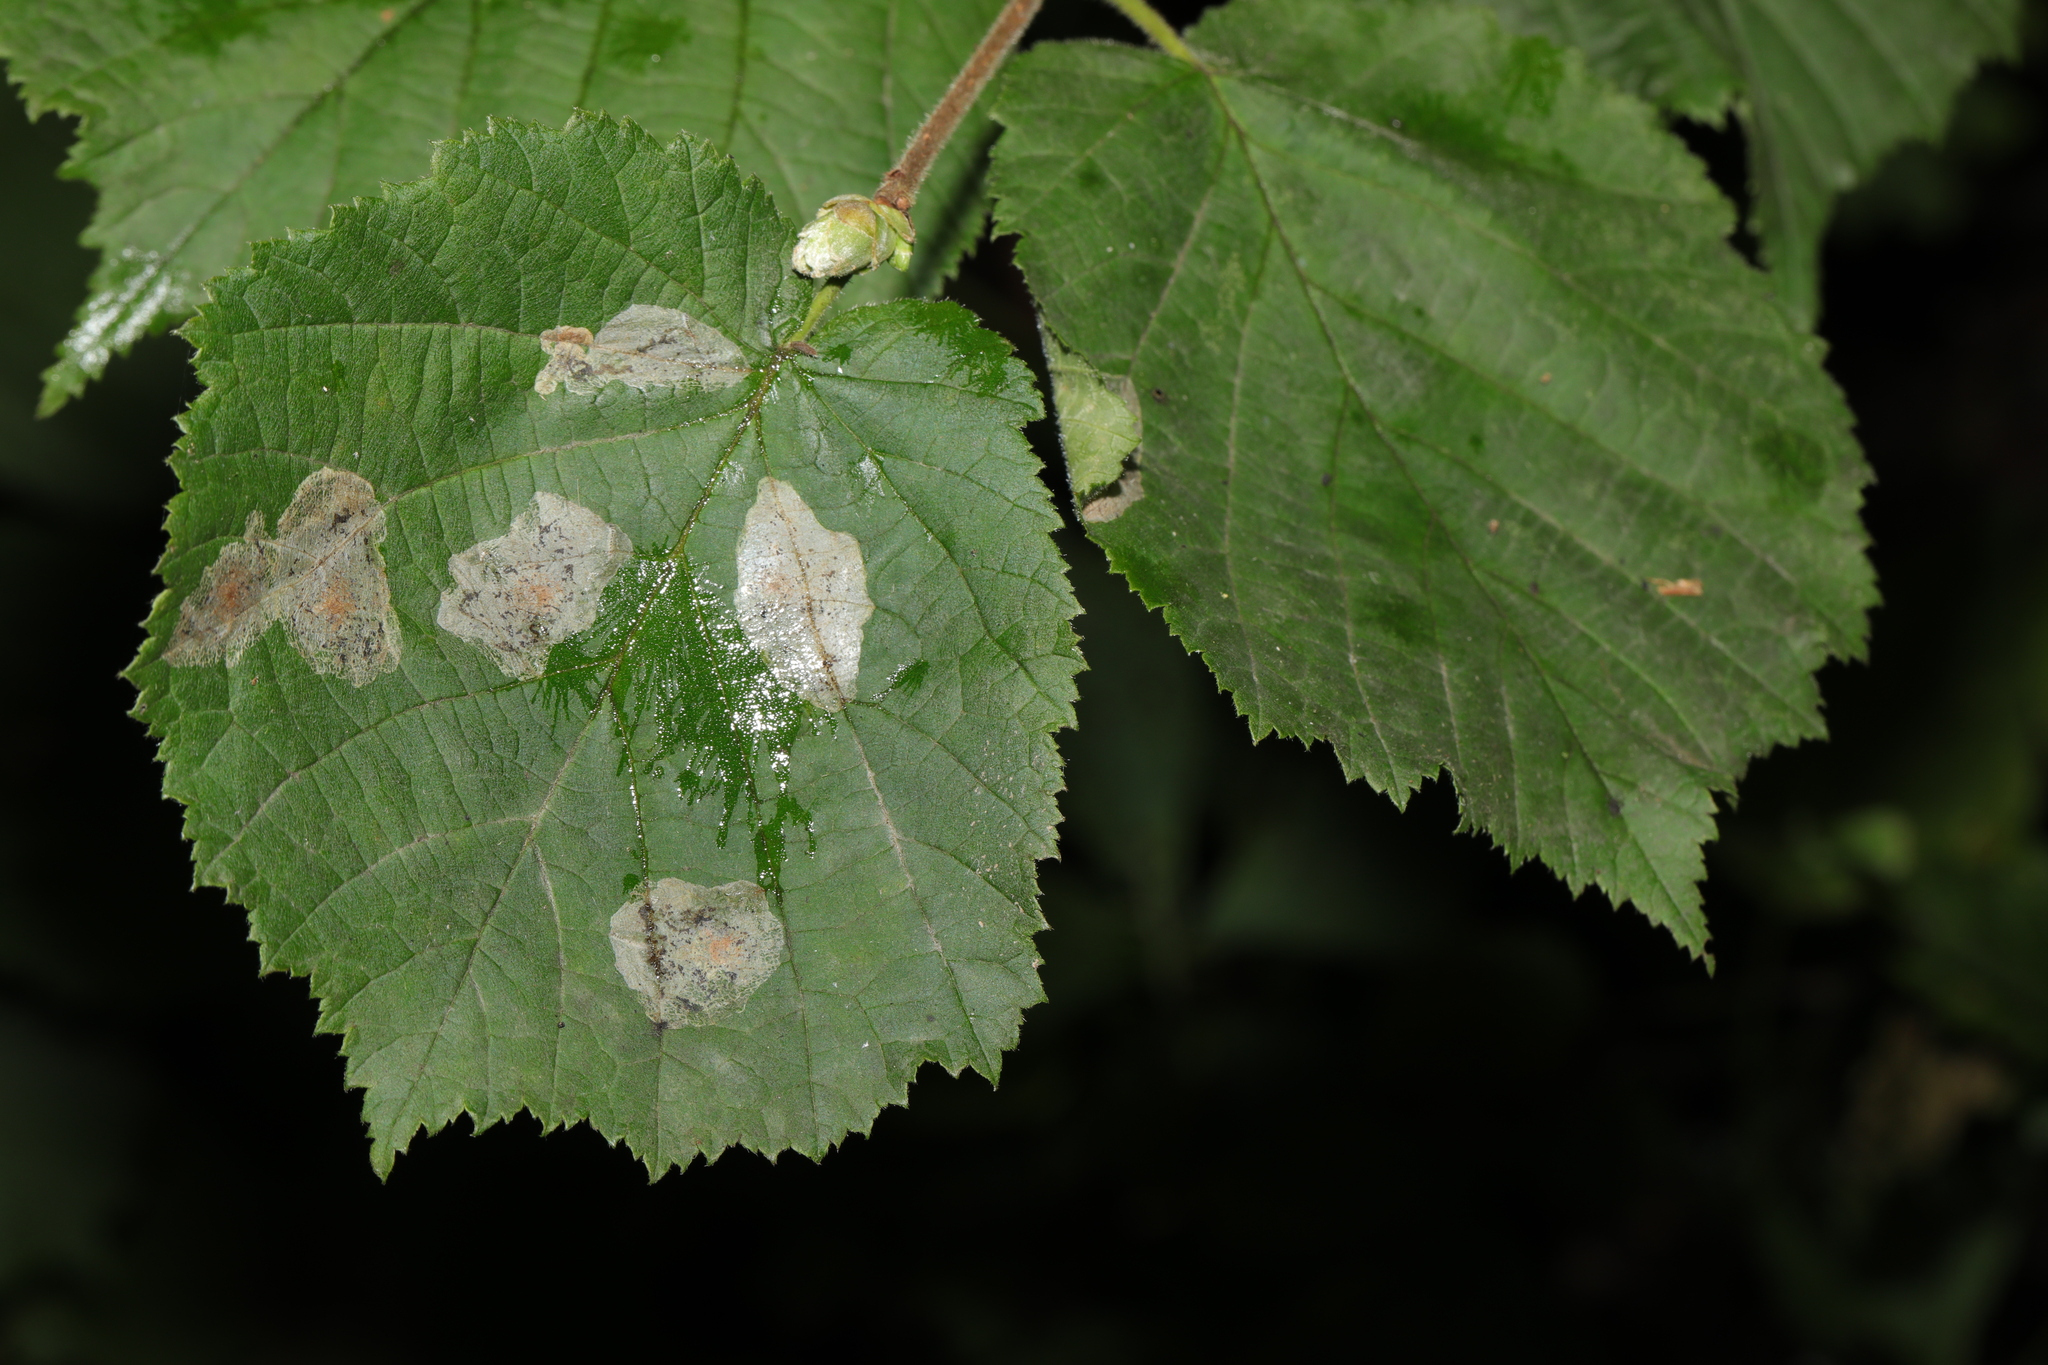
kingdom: Animalia
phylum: Arthropoda
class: Insecta
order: Lepidoptera
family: Gracillariidae
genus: Phyllonorycter
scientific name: Phyllonorycter coryli
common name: Nut-leaf blister moth
